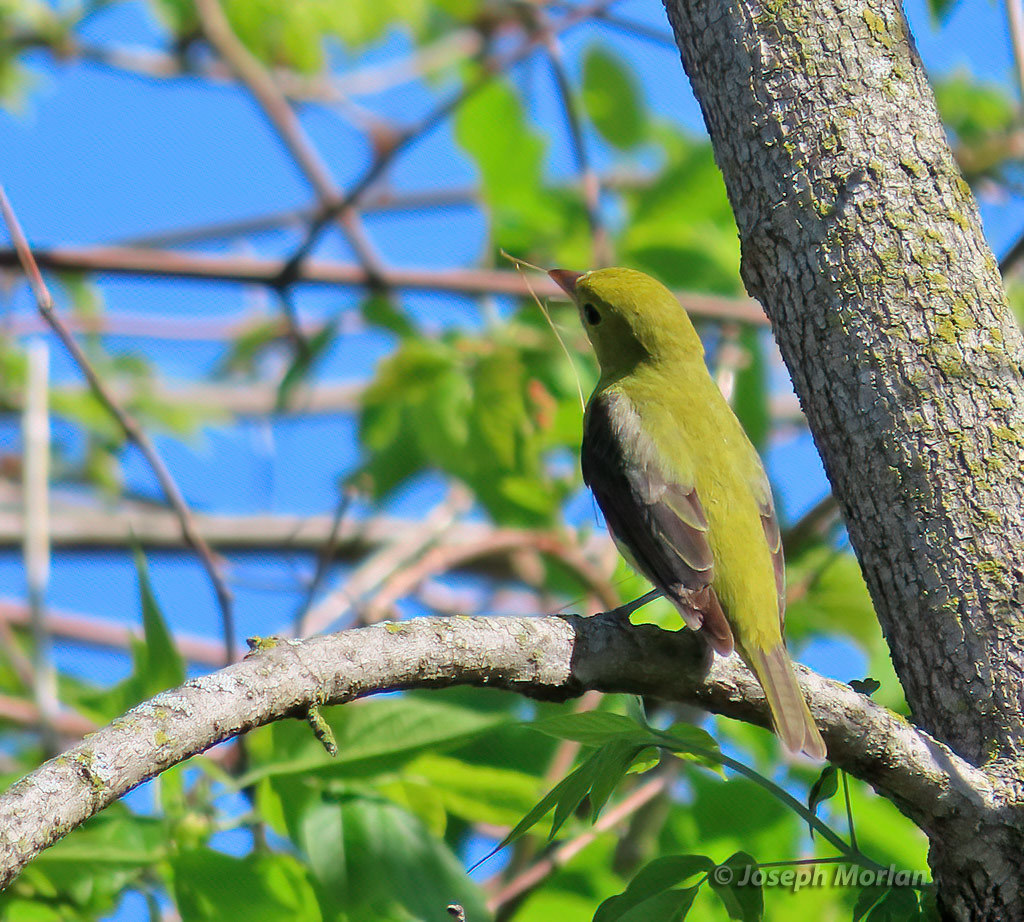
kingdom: Animalia
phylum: Chordata
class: Aves
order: Passeriformes
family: Cardinalidae
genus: Piranga
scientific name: Piranga olivacea
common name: Scarlet tanager
